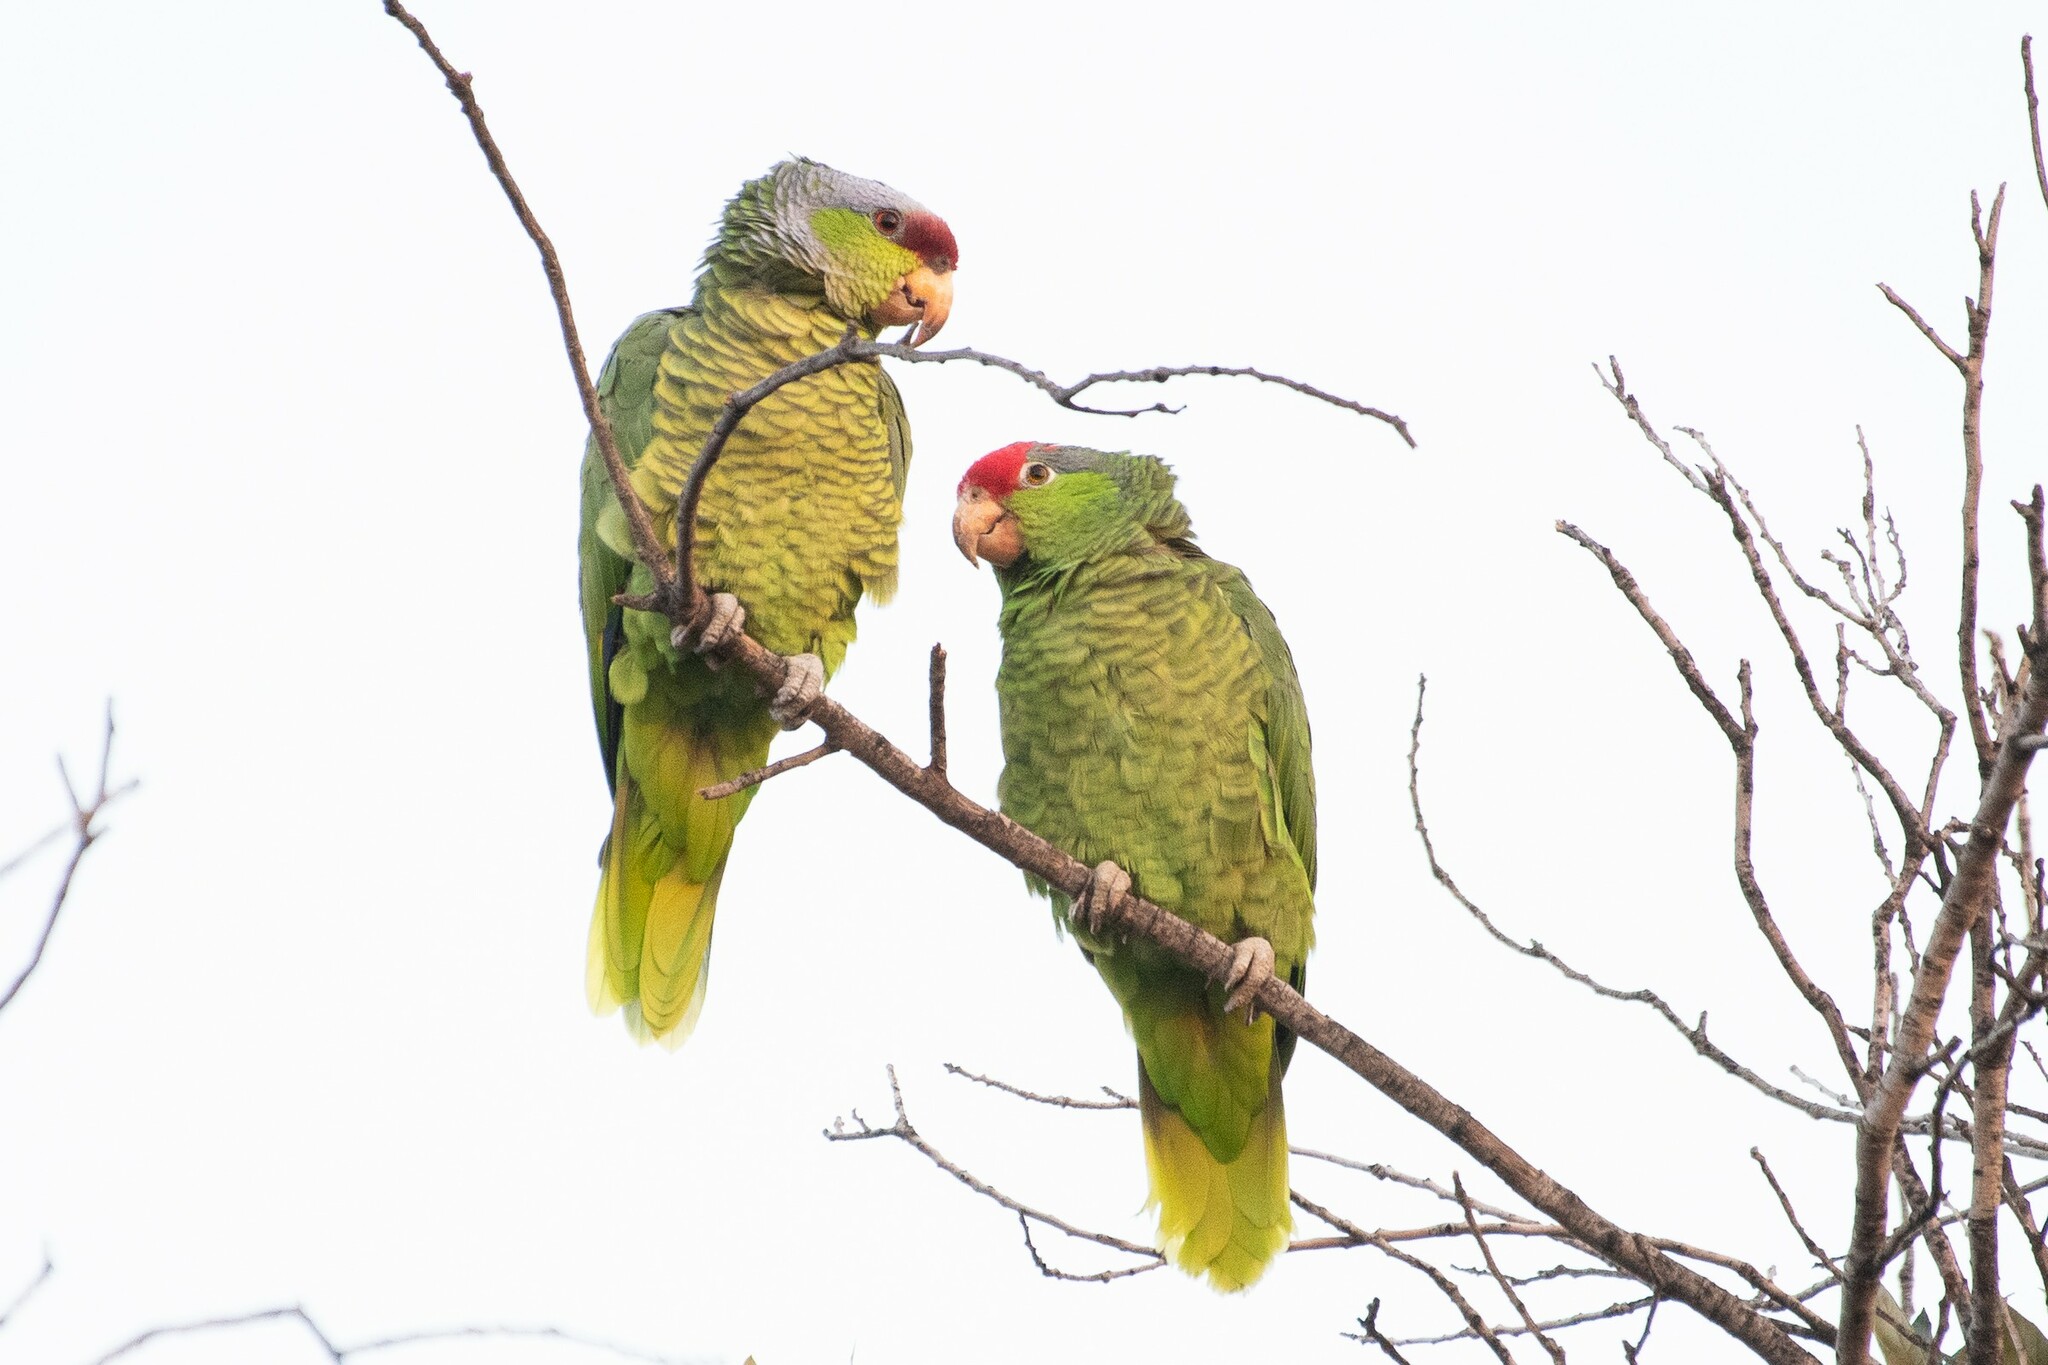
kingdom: Animalia
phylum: Chordata
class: Aves
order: Psittaciformes
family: Psittacidae
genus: Amazona
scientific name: Amazona viridigenalis
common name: Red-crowned amazon
